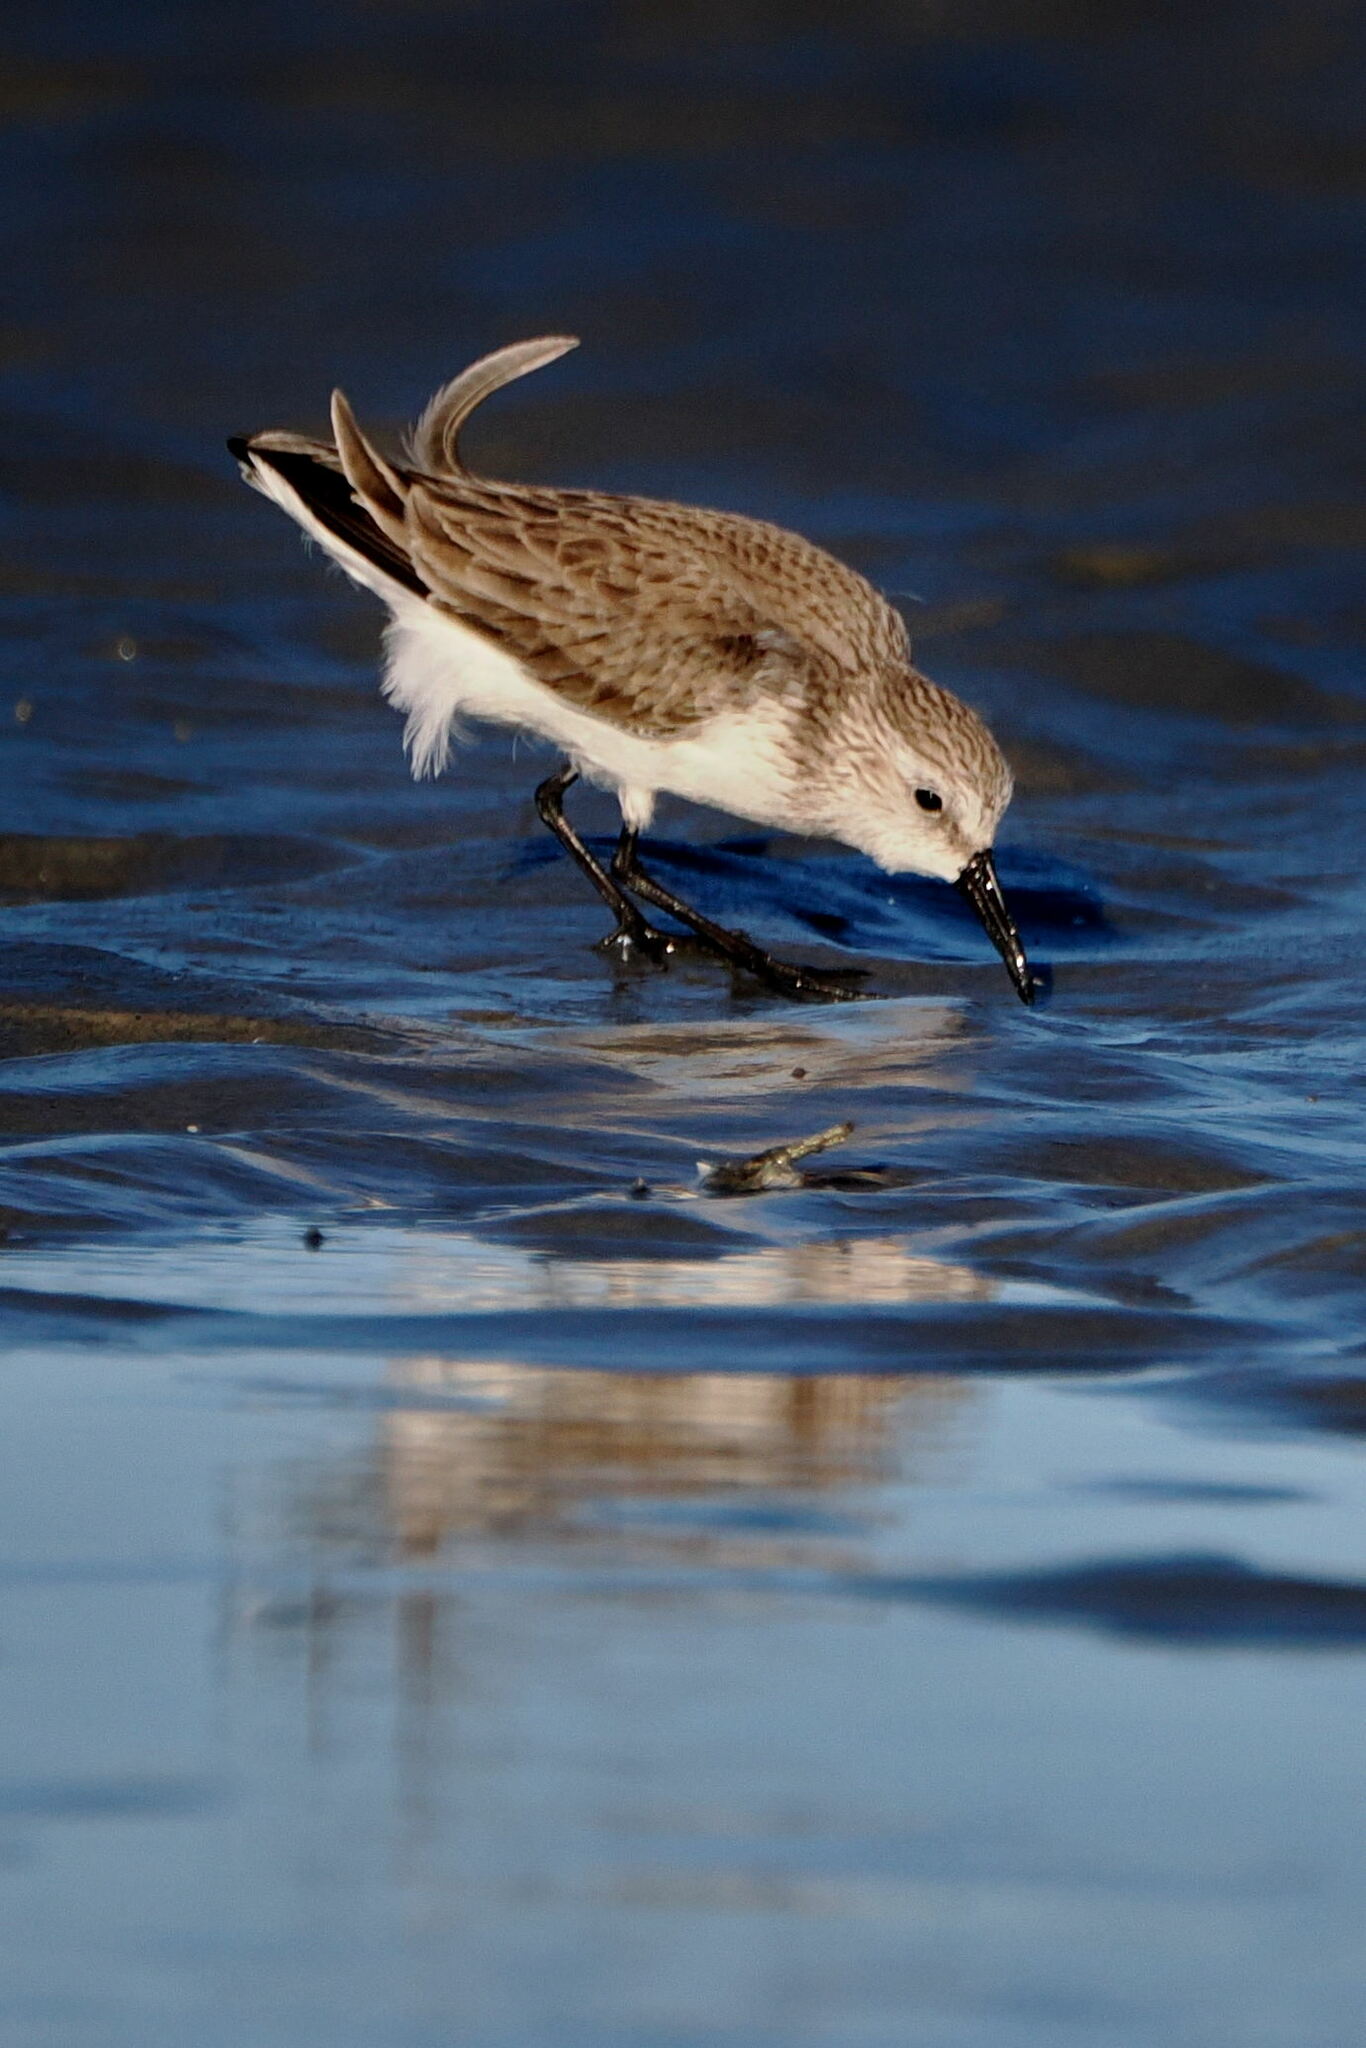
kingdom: Animalia
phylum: Chordata
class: Aves
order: Charadriiformes
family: Scolopacidae
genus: Calidris
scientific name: Calidris mauri
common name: Western sandpiper
